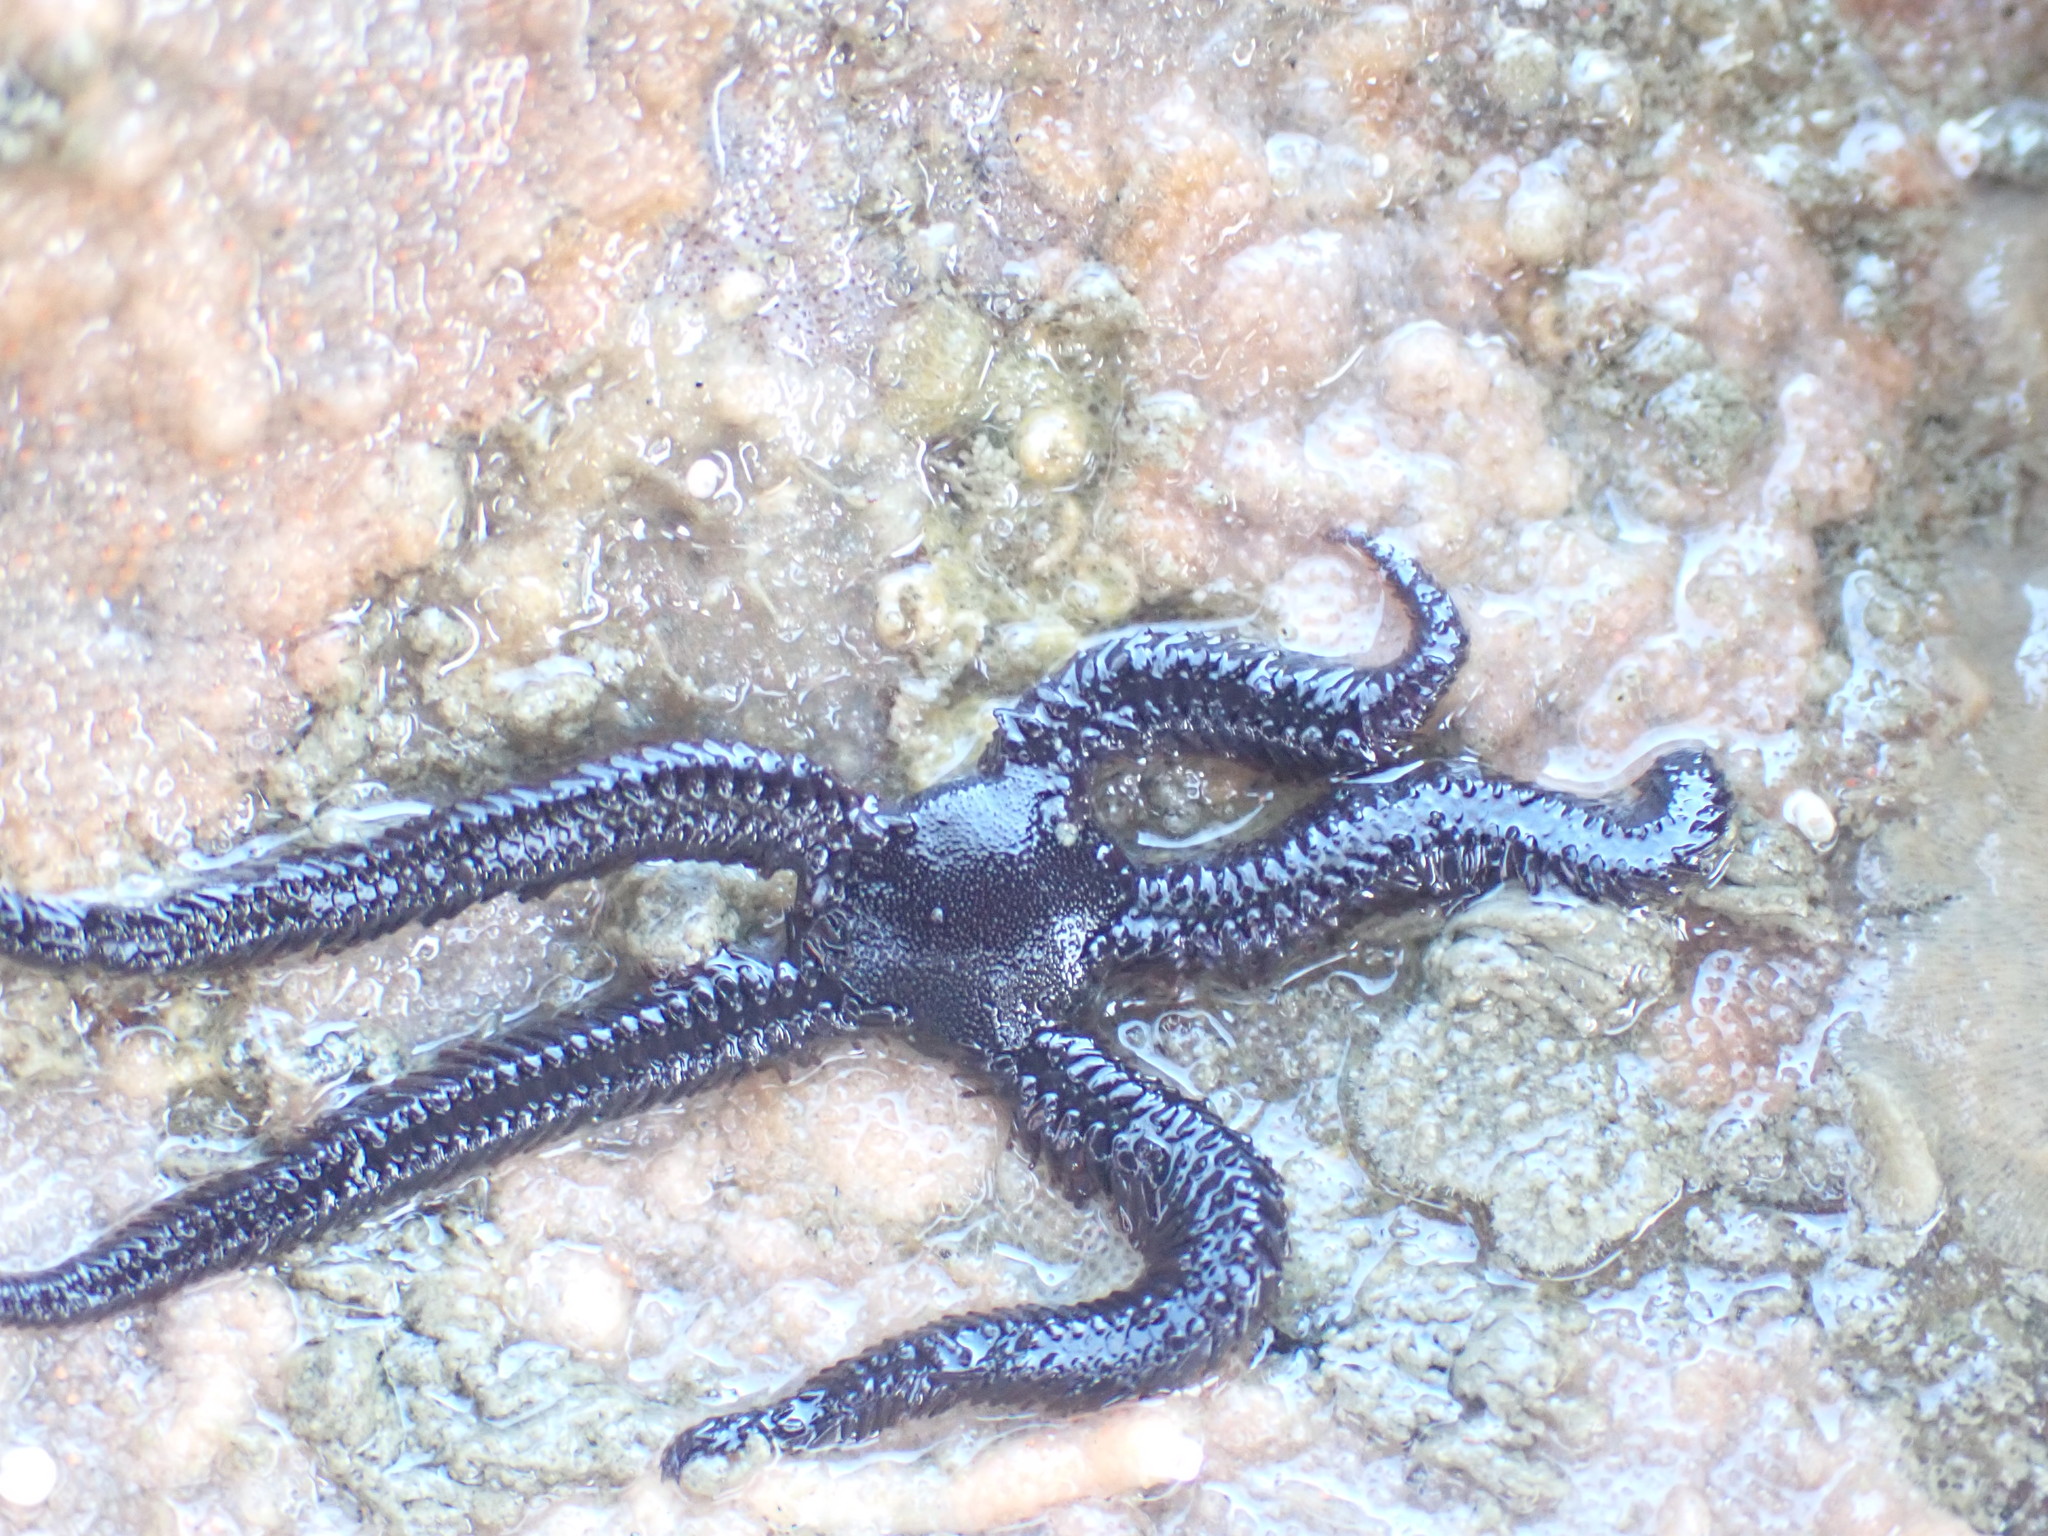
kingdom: Animalia
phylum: Echinodermata
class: Ophiuroidea
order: Ophiacanthida
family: Ophiopteridae
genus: Ophiopteris
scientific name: Ophiopteris antipodum
